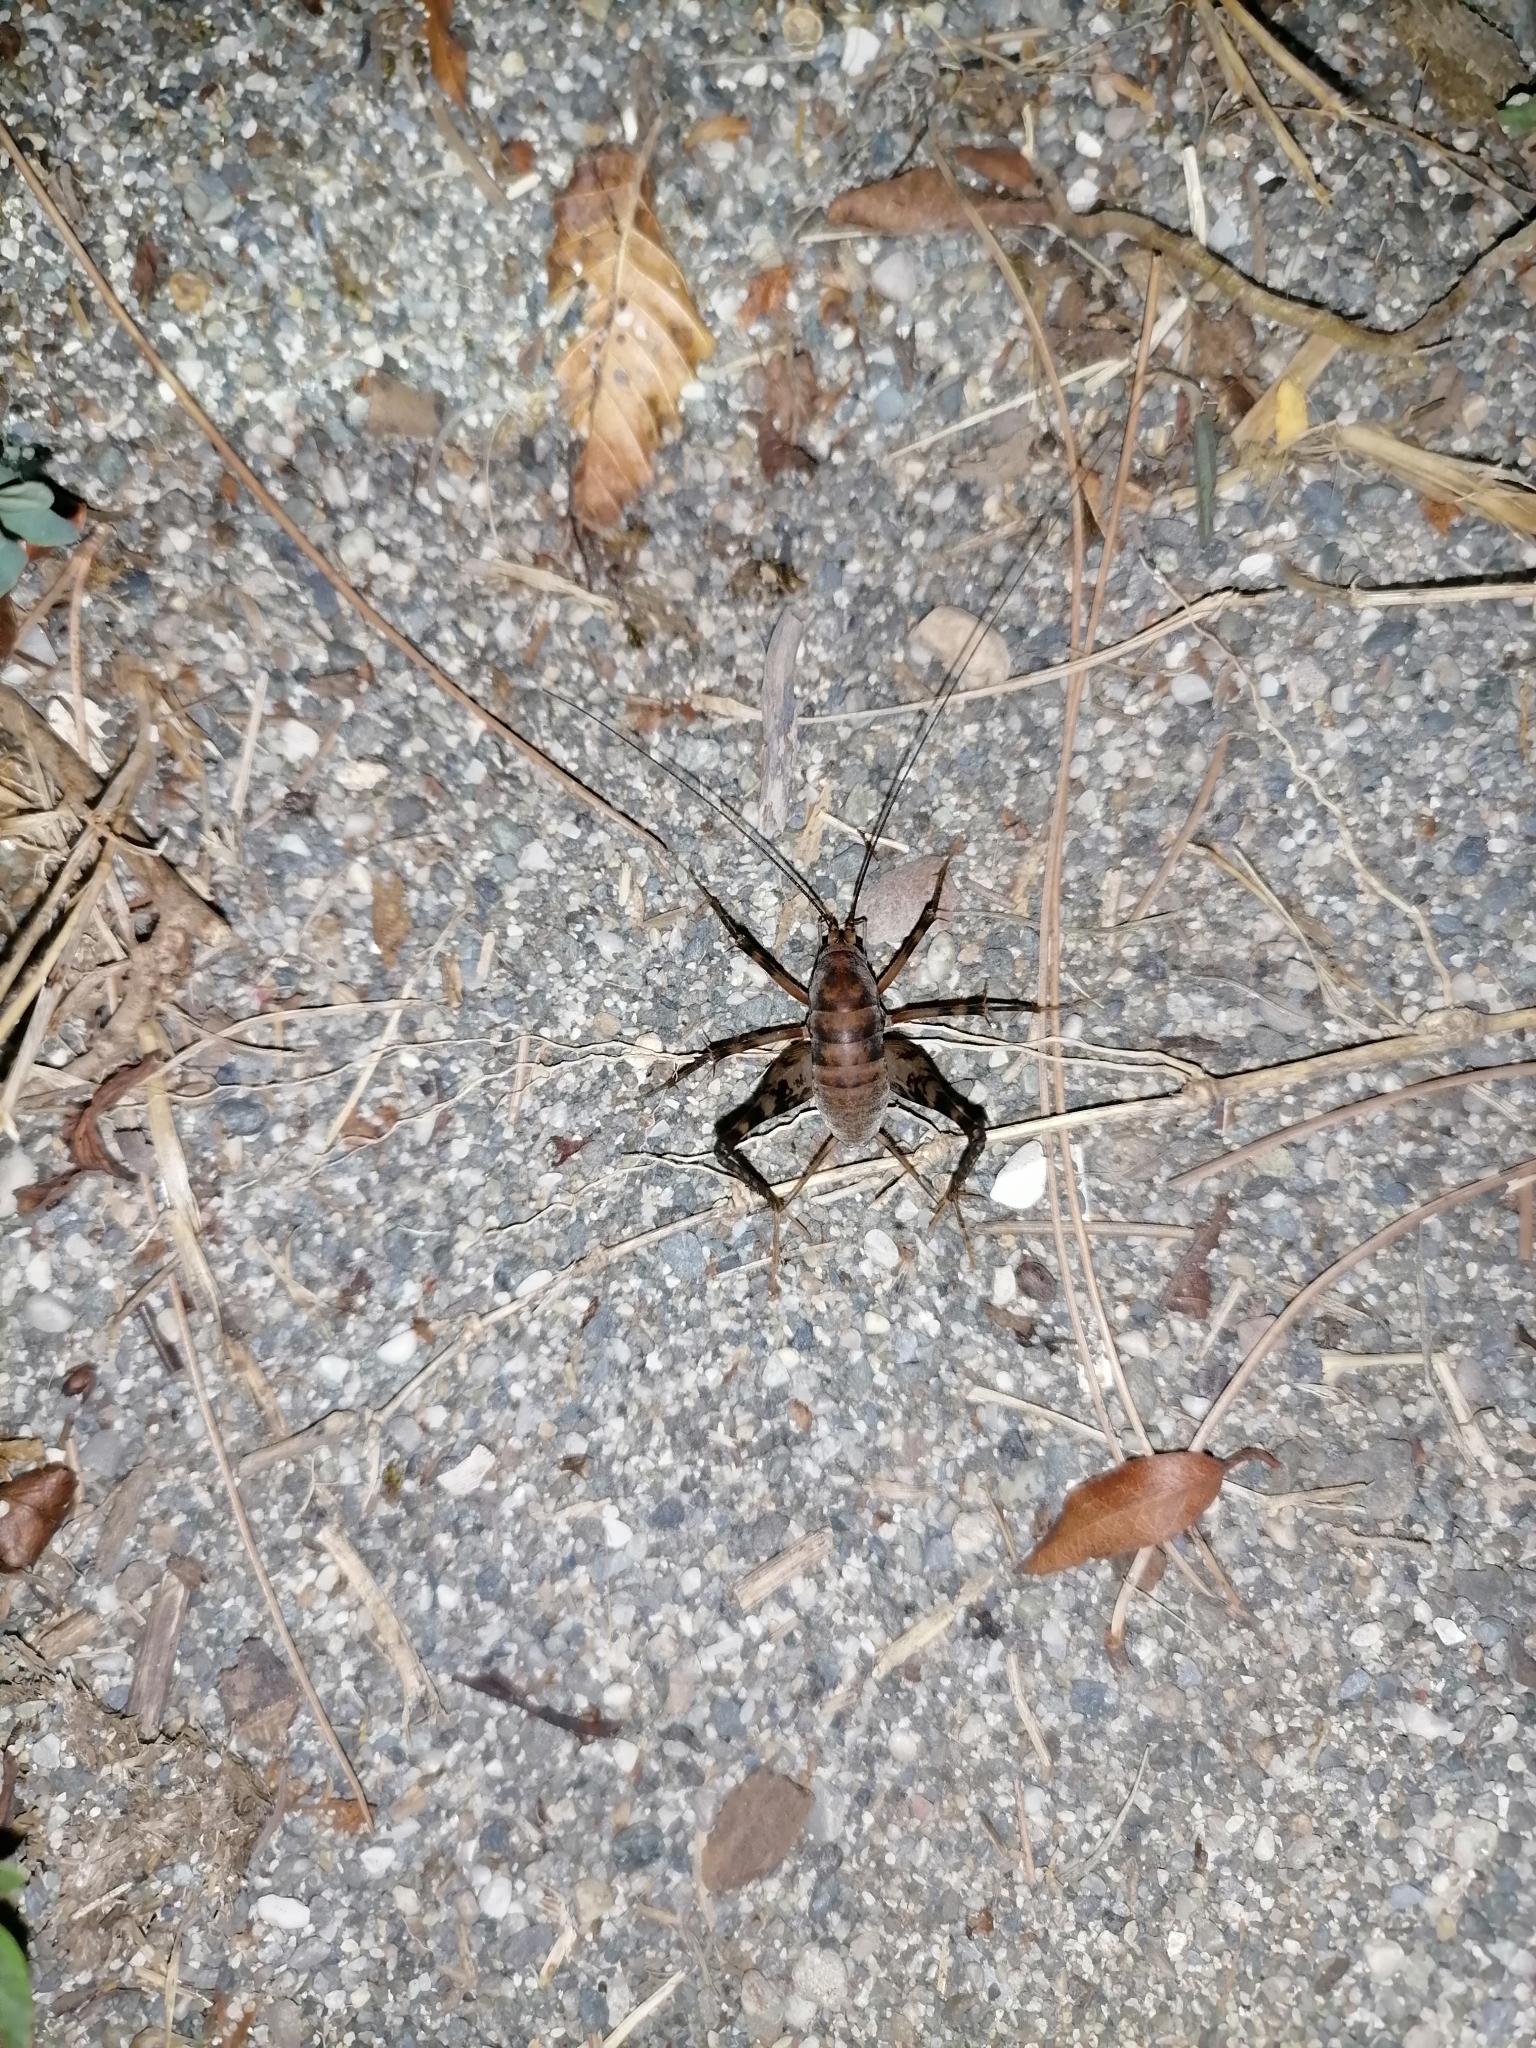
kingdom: Animalia
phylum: Arthropoda
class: Insecta
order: Orthoptera
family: Rhaphidophoridae
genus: Tachycines
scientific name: Tachycines asynamorus
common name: Greenhouse camel cricket
